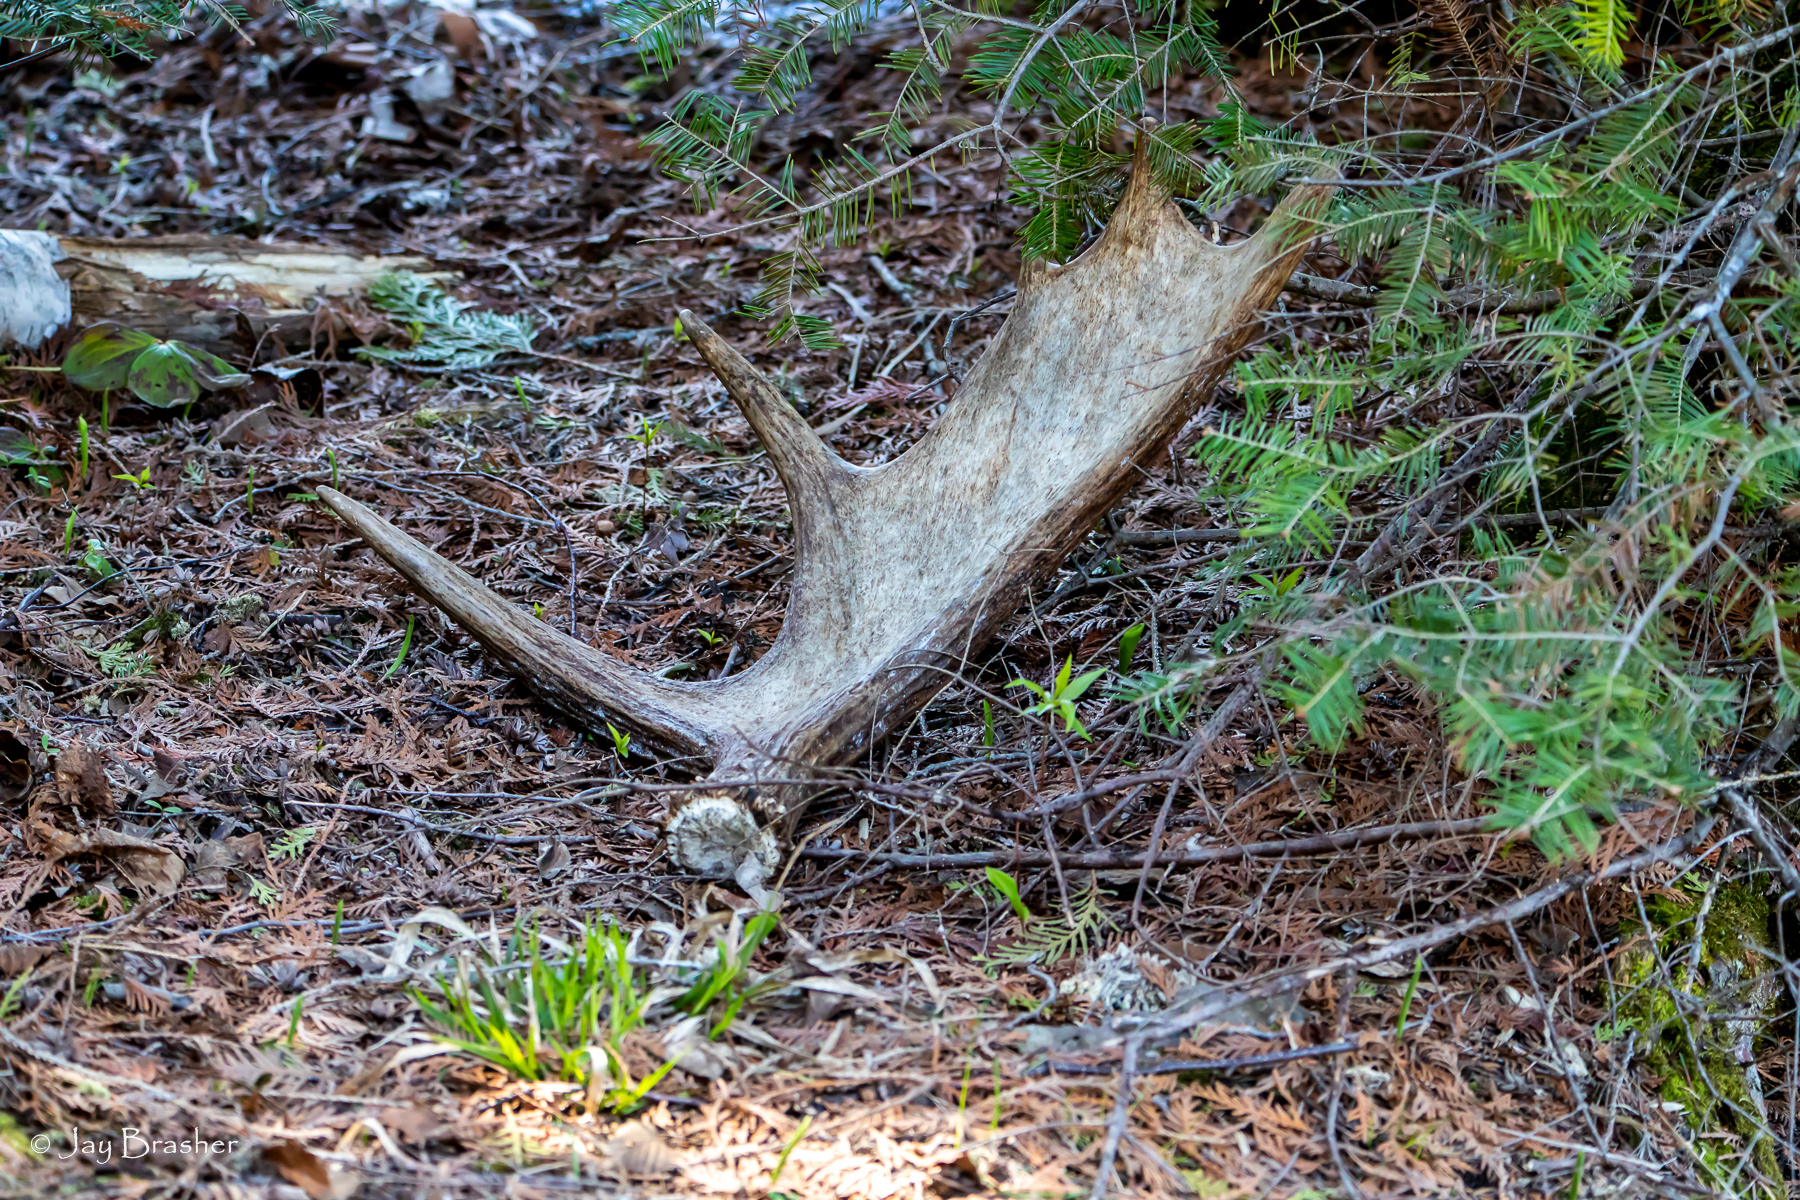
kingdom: Animalia
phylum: Chordata
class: Mammalia
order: Artiodactyla
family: Cervidae
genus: Alces
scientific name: Alces americanus
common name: Moose
